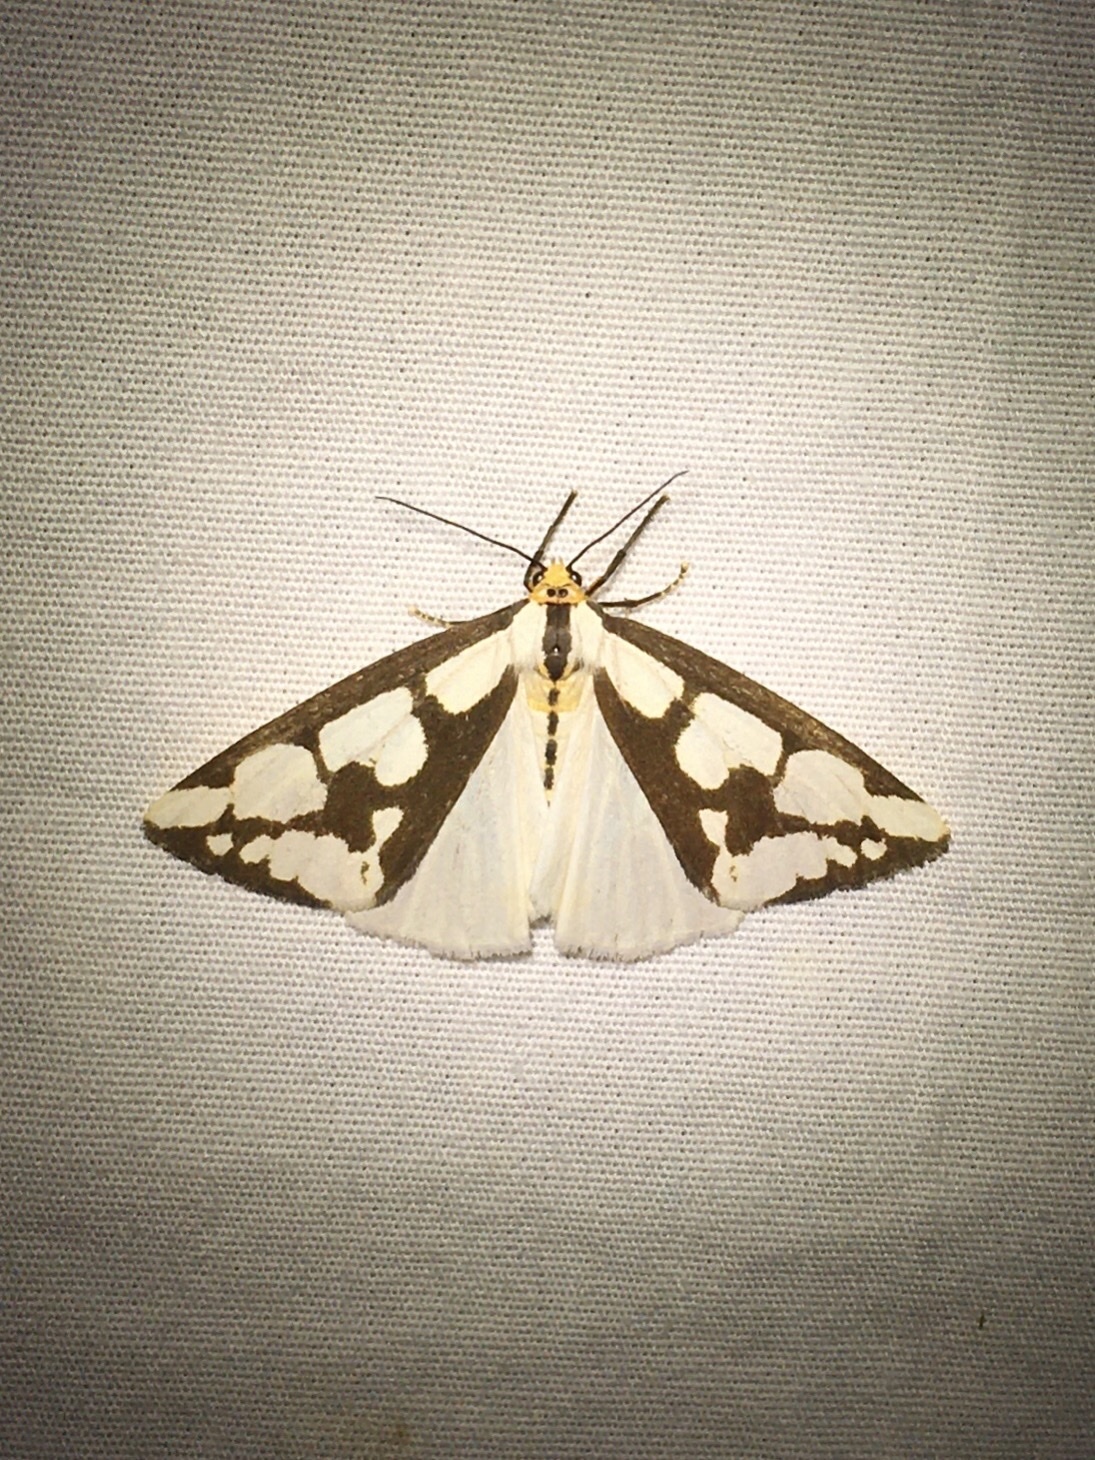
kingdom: Animalia
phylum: Arthropoda
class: Insecta
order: Lepidoptera
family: Erebidae
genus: Haploa
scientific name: Haploa confusa
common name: Confused haploa moth
